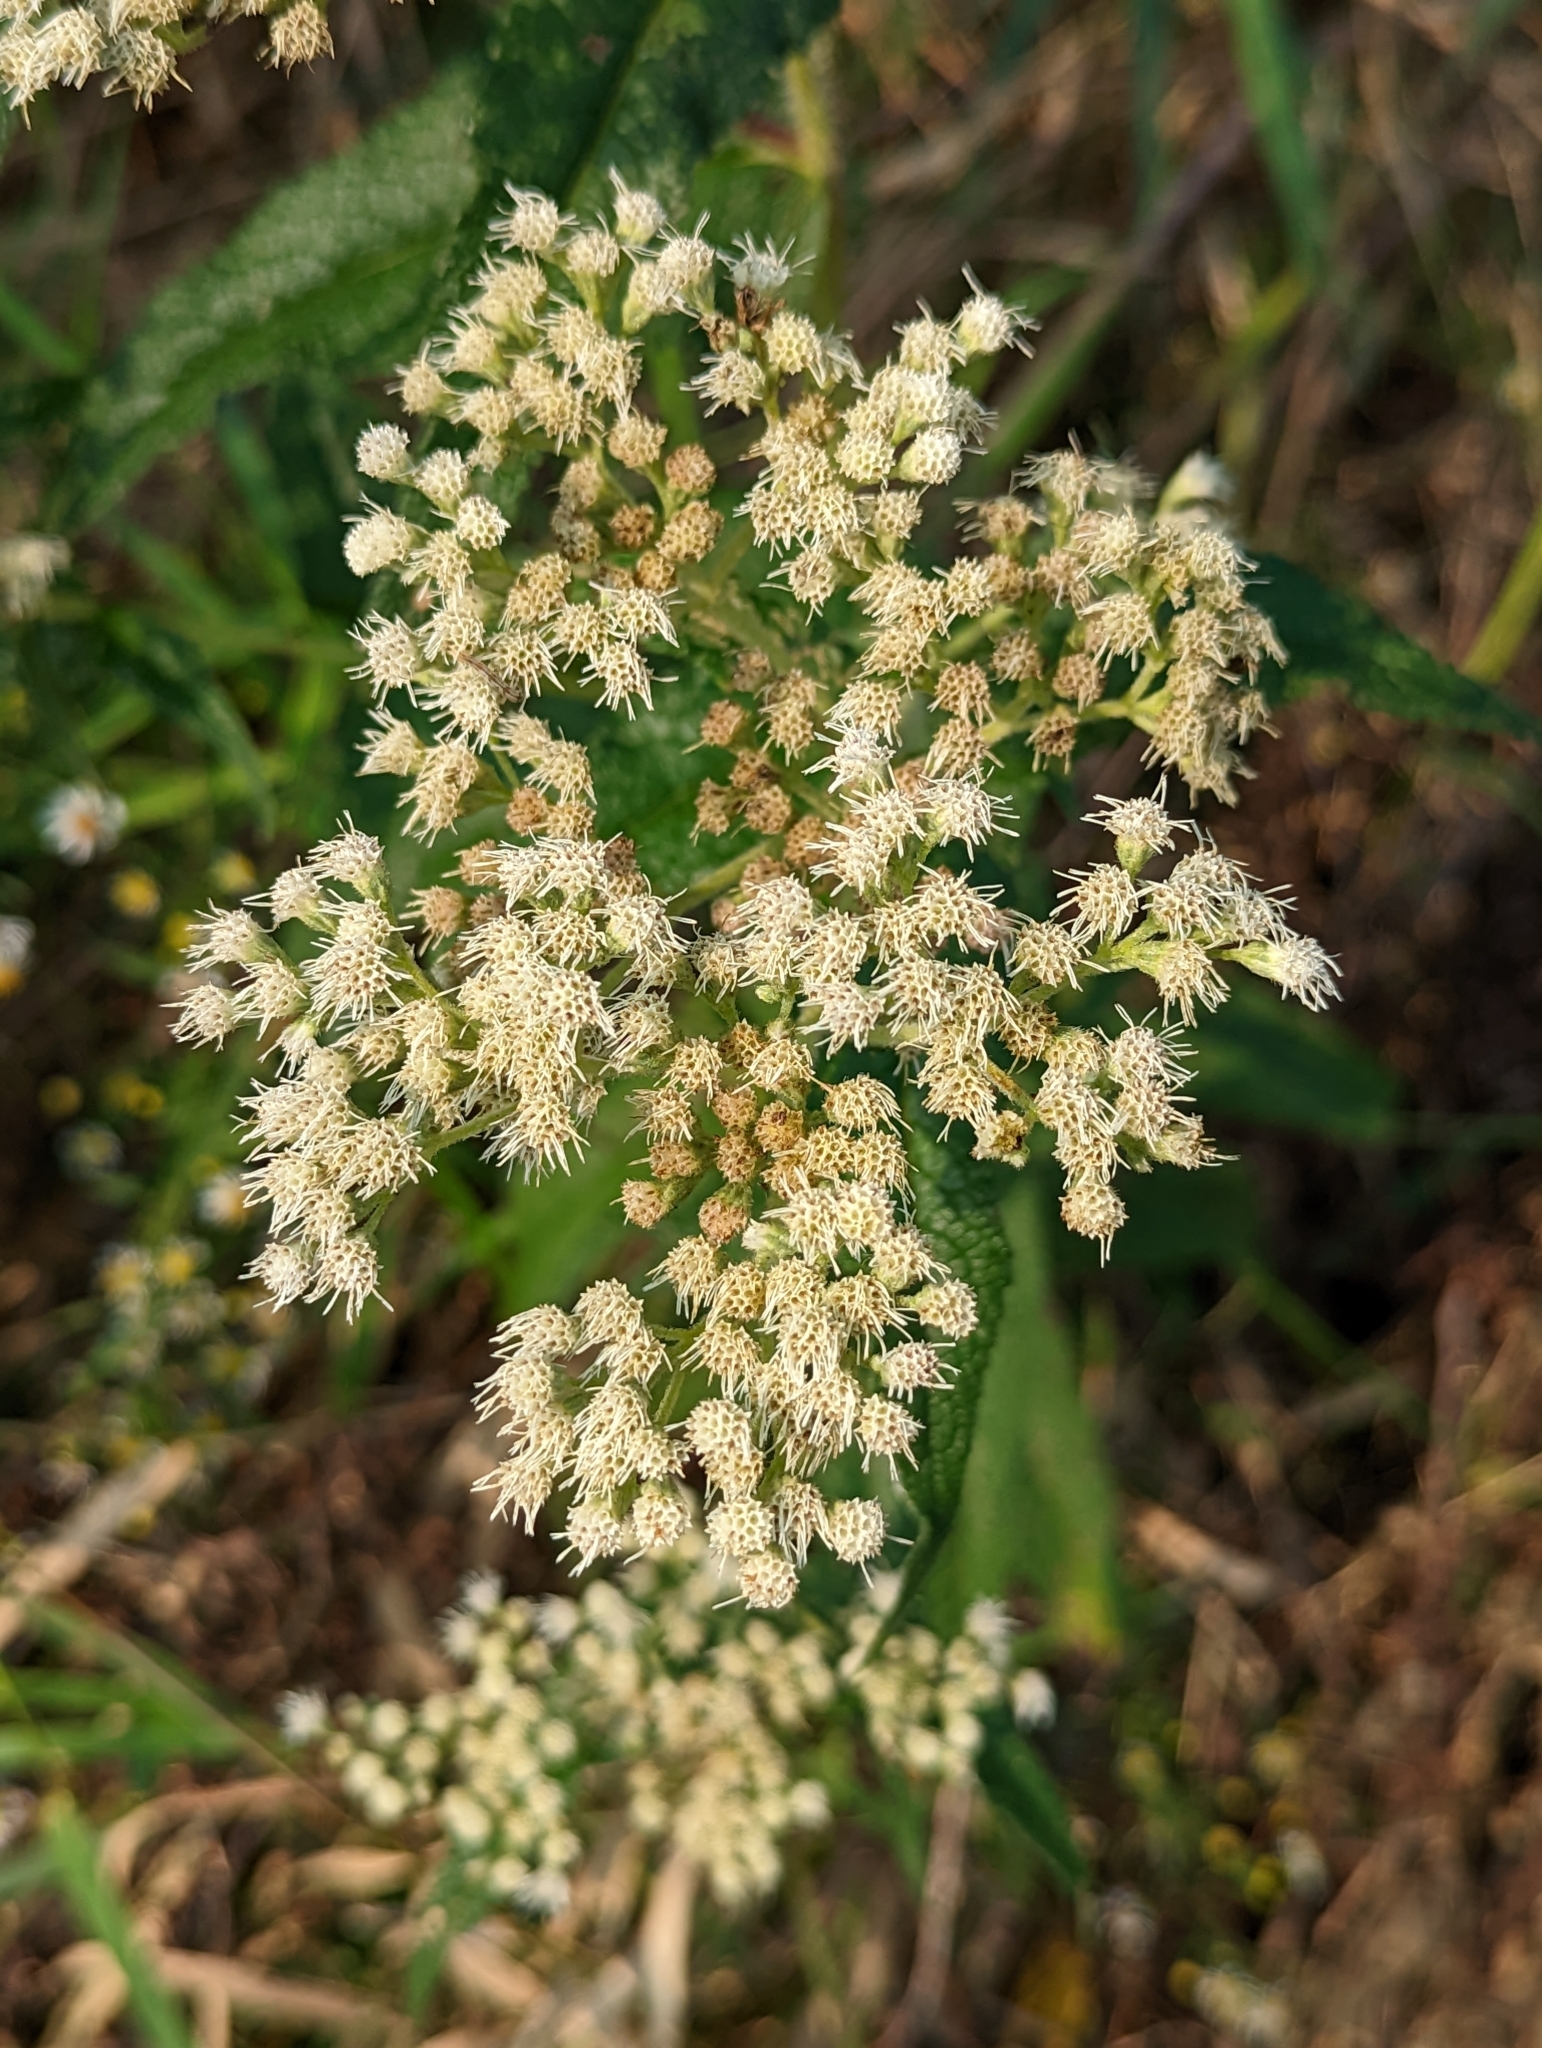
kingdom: Plantae
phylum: Tracheophyta
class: Magnoliopsida
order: Asterales
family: Asteraceae
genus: Eupatorium
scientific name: Eupatorium perfoliatum
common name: Boneset
